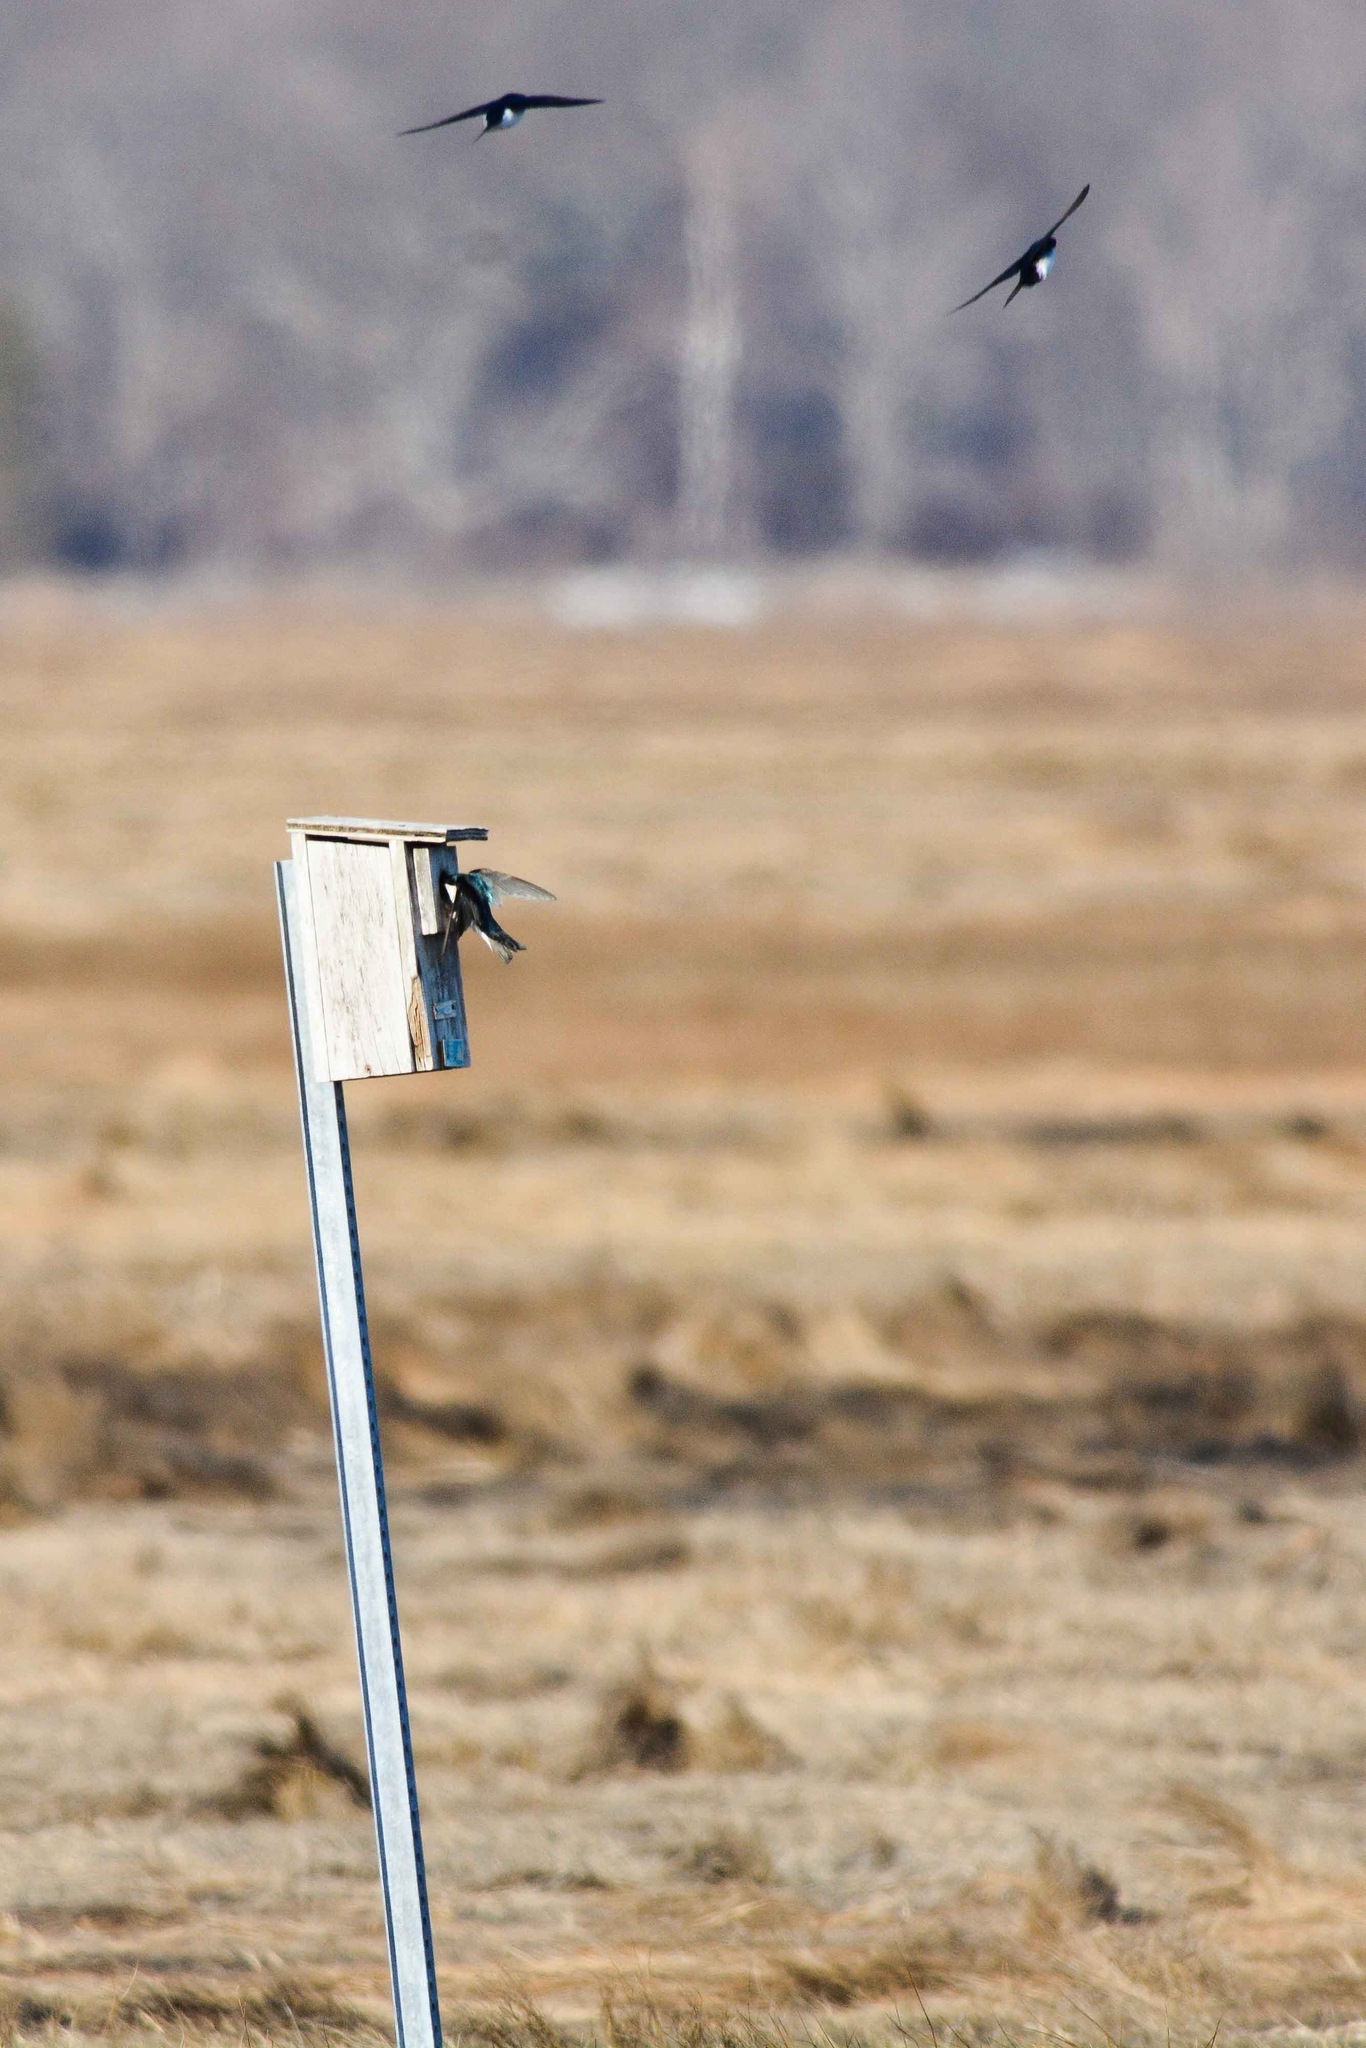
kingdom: Animalia
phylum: Chordata
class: Aves
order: Passeriformes
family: Hirundinidae
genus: Tachycineta
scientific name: Tachycineta bicolor
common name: Tree swallow
